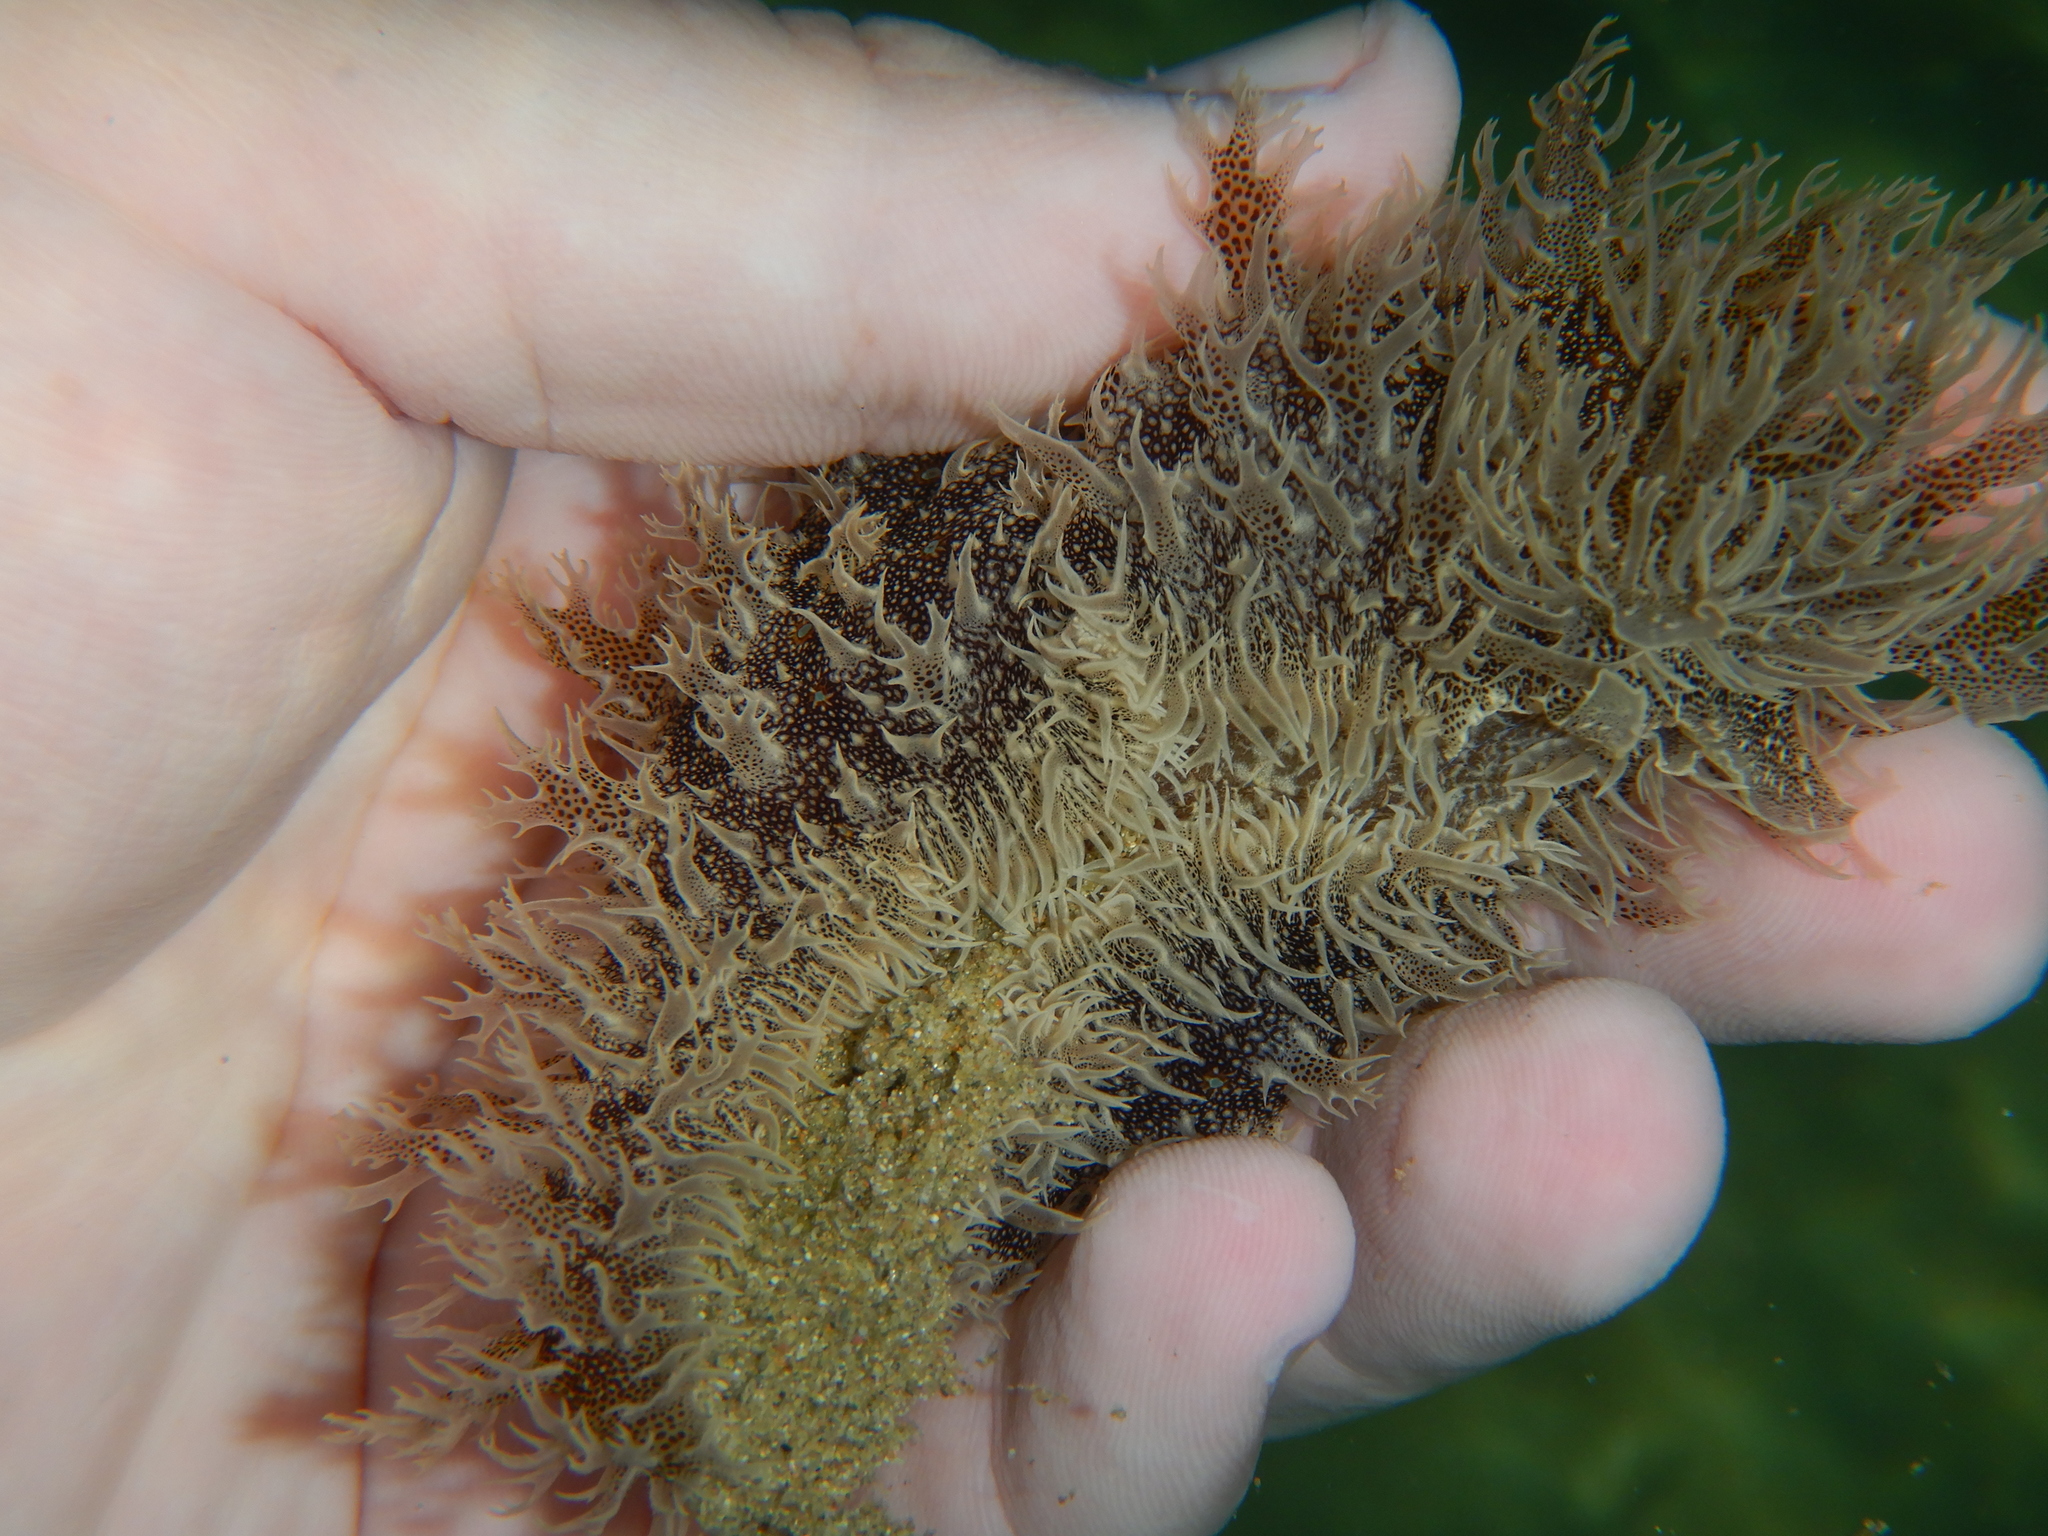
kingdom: Animalia
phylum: Mollusca
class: Gastropoda
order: Aplysiida
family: Aplysiidae
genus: Bursatella
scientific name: Bursatella leachii
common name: Shaggy sea hare
